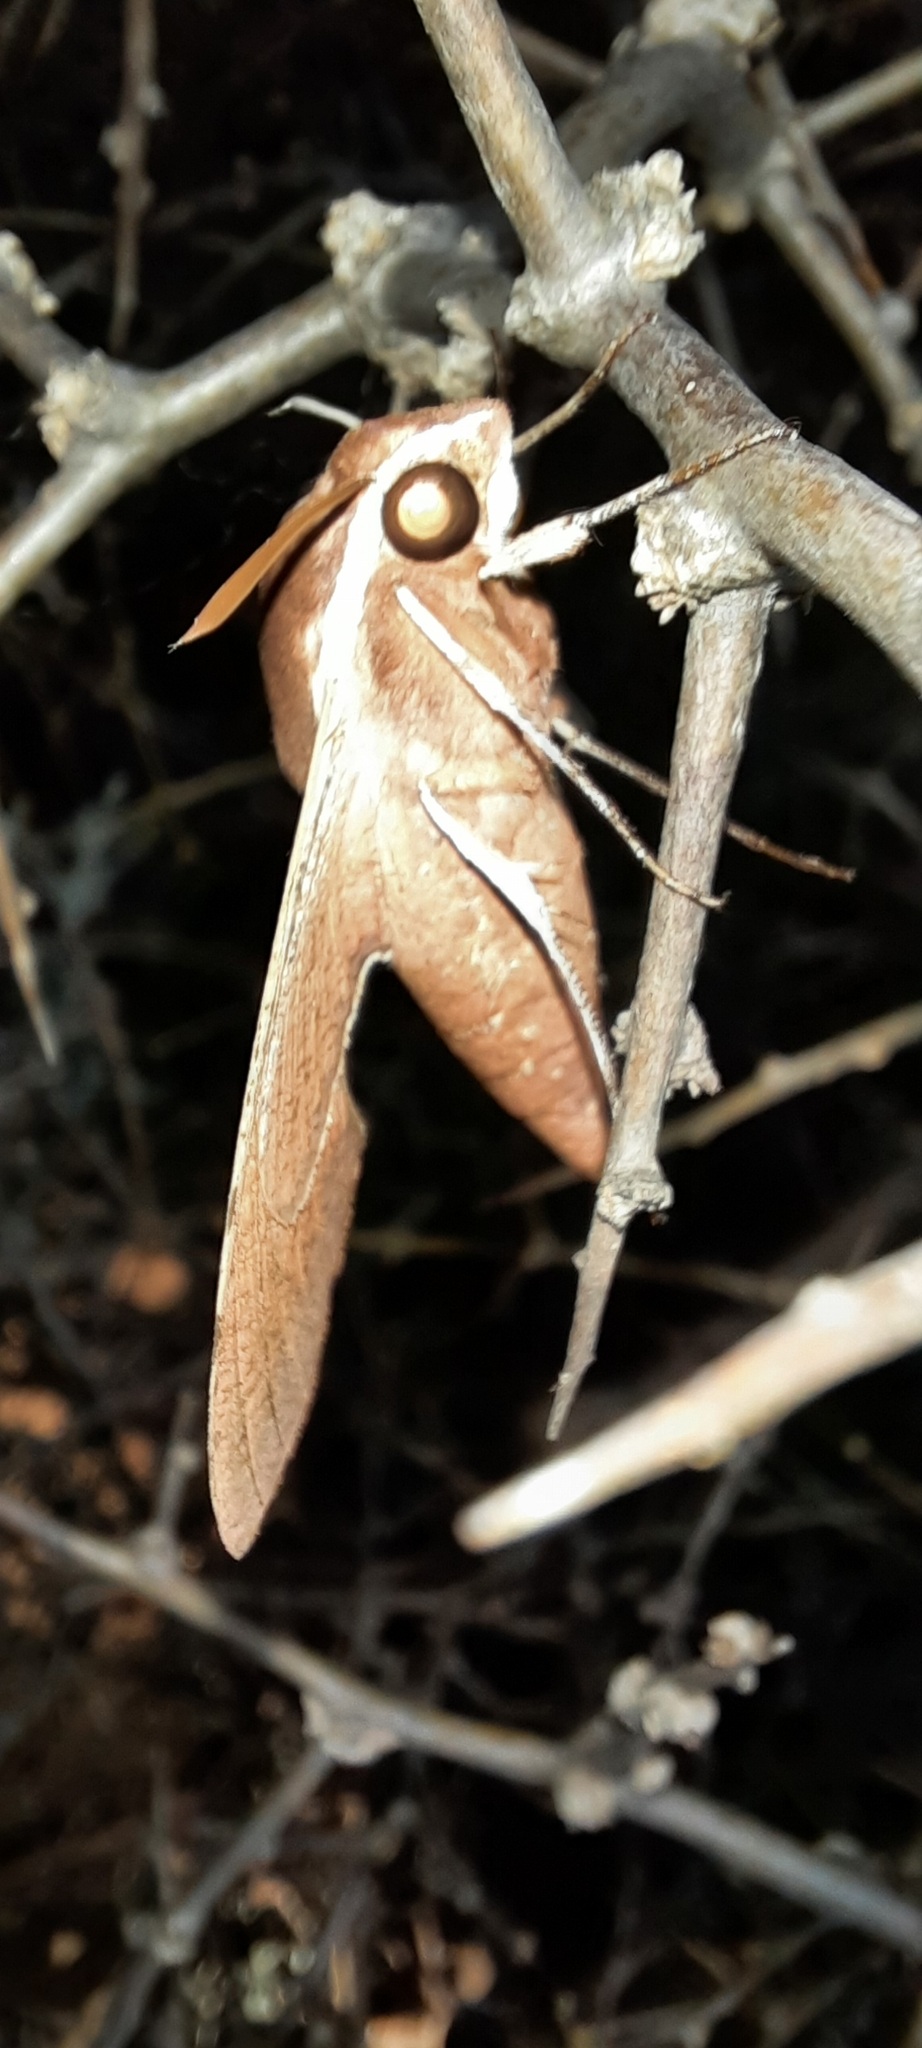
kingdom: Animalia
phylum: Arthropoda
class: Insecta
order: Lepidoptera
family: Sphingidae
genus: Hippotion
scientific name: Hippotion scrofa
